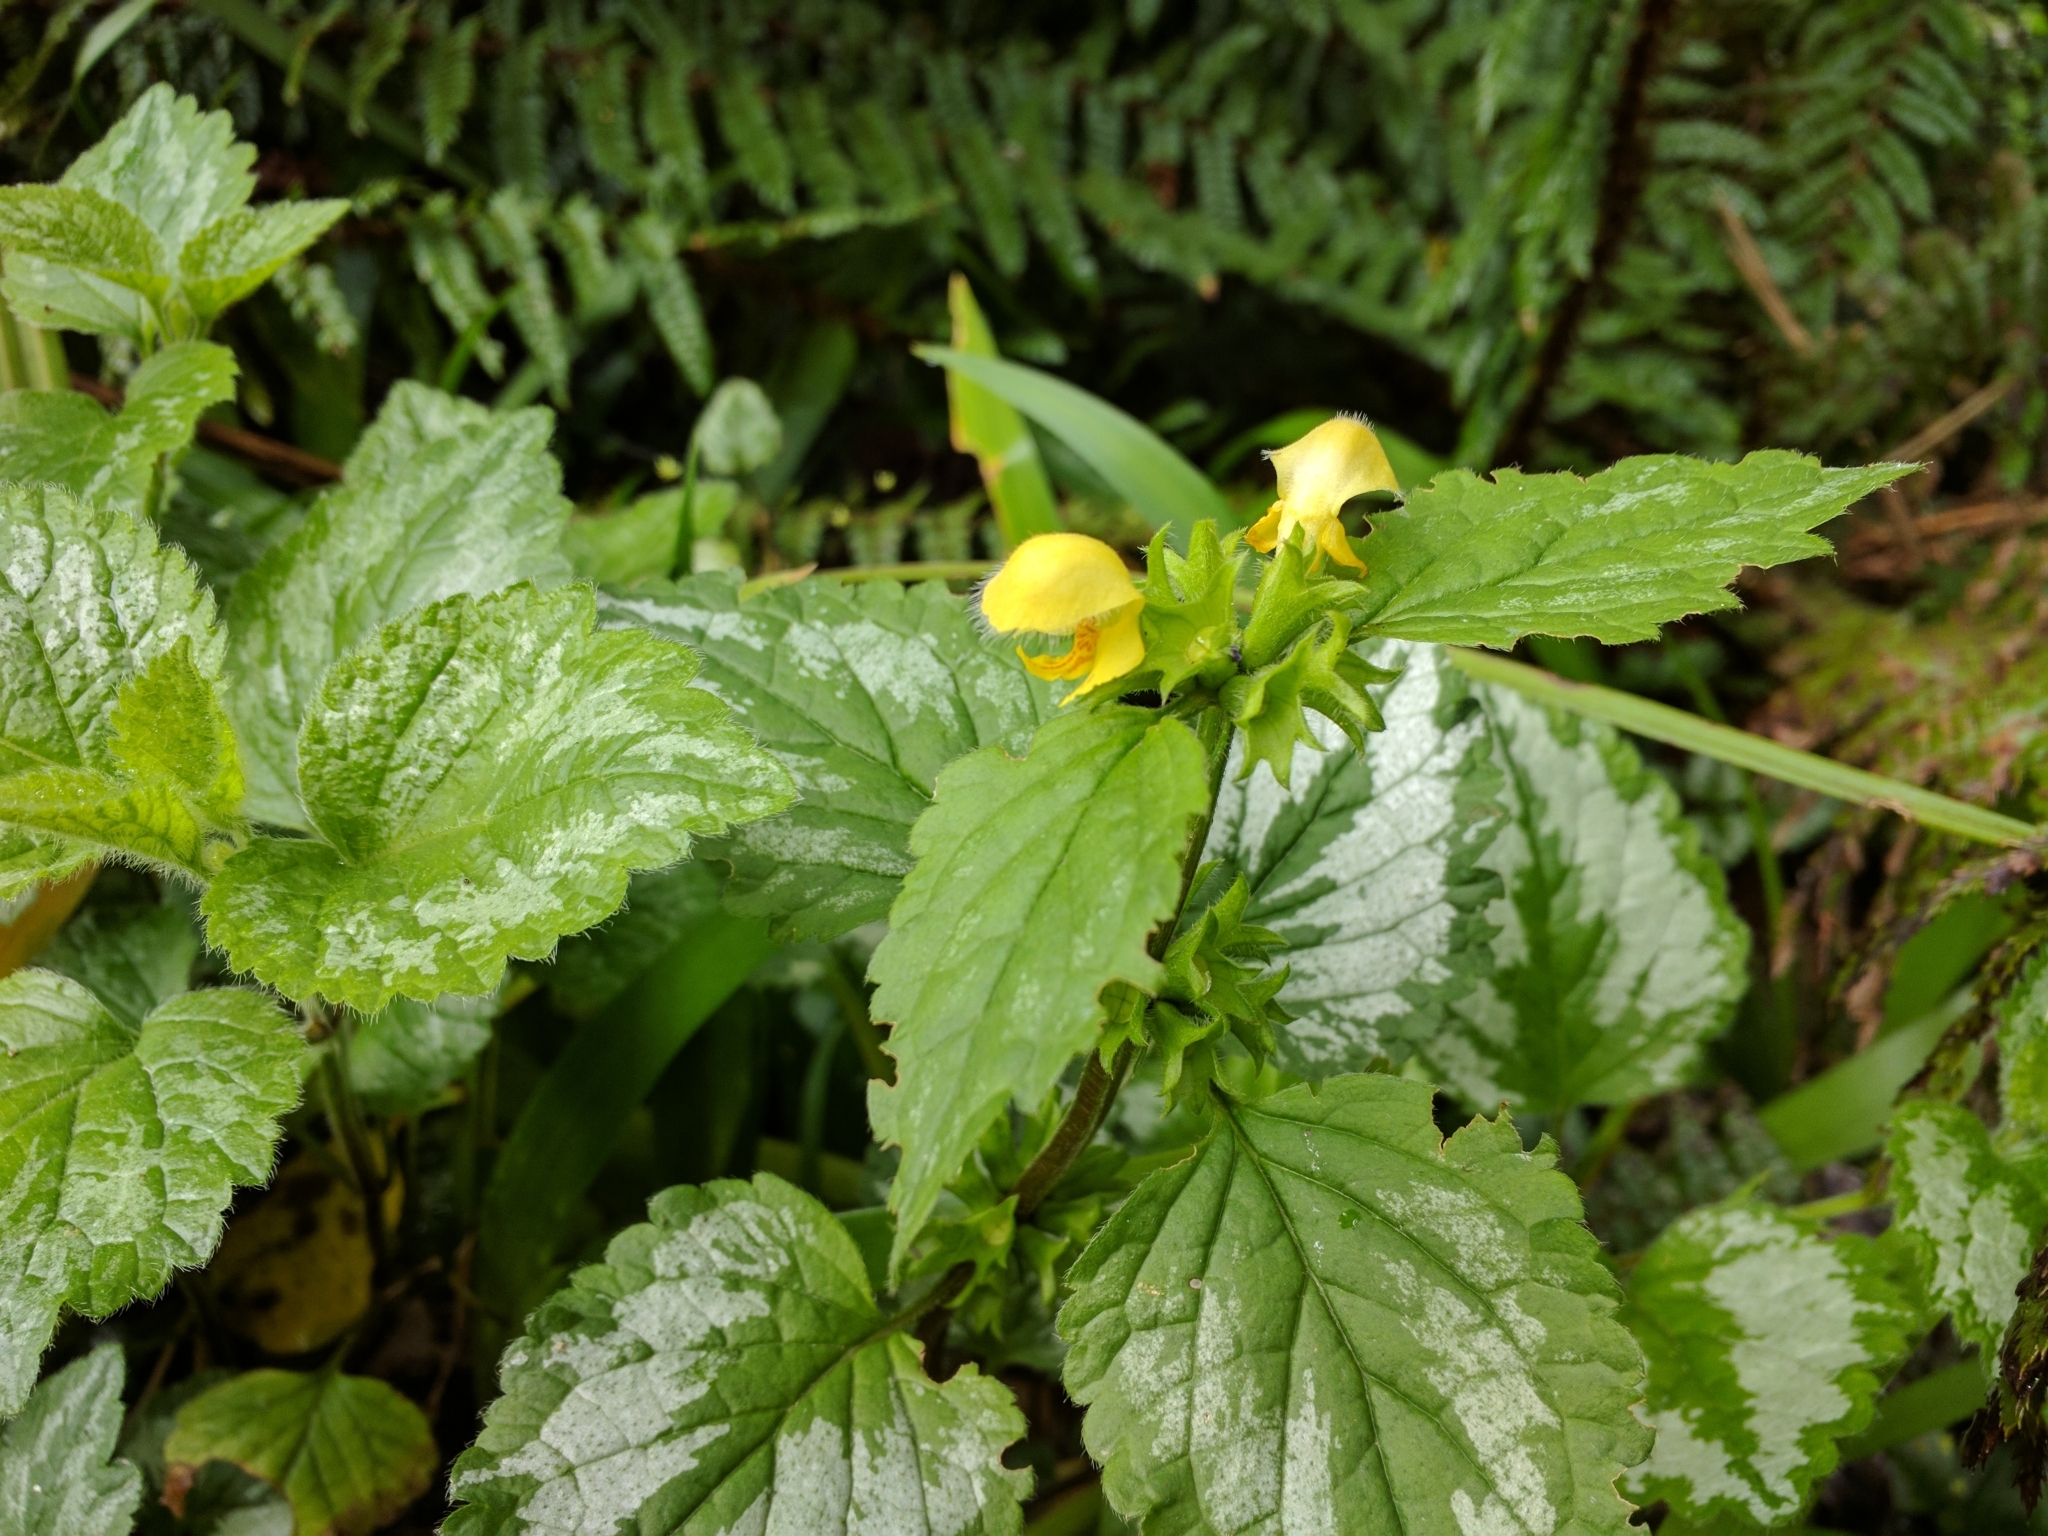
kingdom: Plantae
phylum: Tracheophyta
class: Magnoliopsida
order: Lamiales
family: Lamiaceae
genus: Lamium
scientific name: Lamium galeobdolon
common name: Yellow archangel
